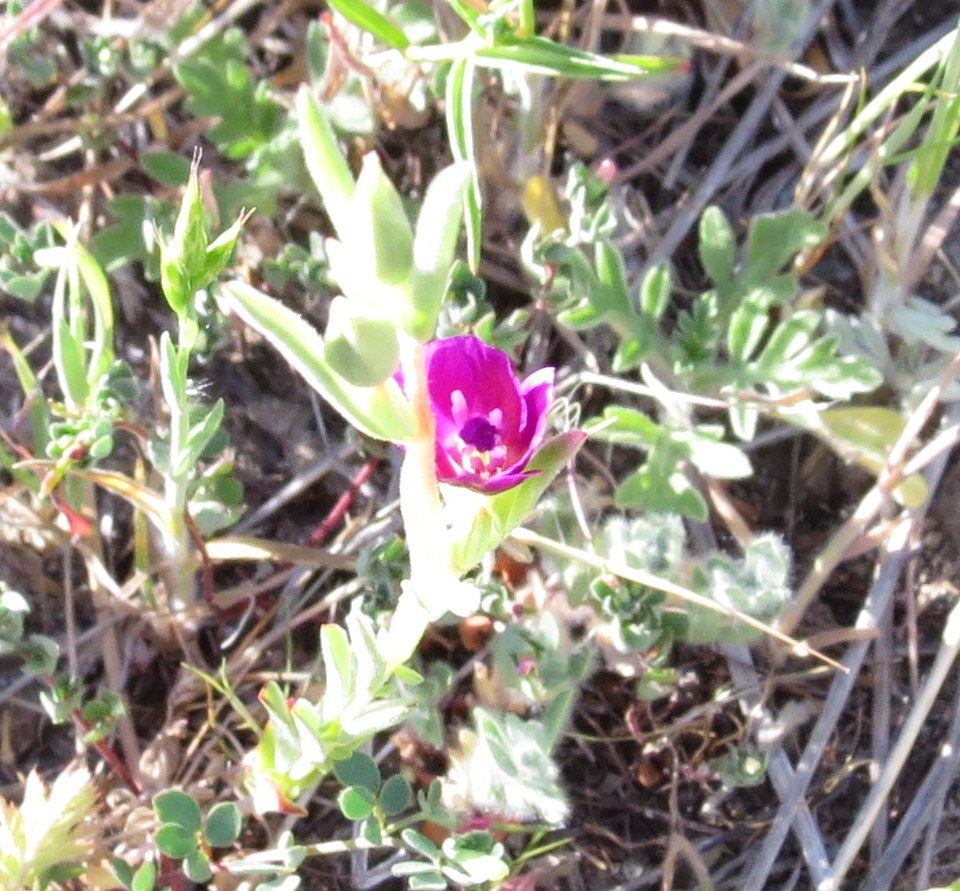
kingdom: Plantae
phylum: Tracheophyta
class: Magnoliopsida
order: Myrtales
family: Onagraceae
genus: Clarkia
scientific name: Clarkia purpurea
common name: Purple clarkia
